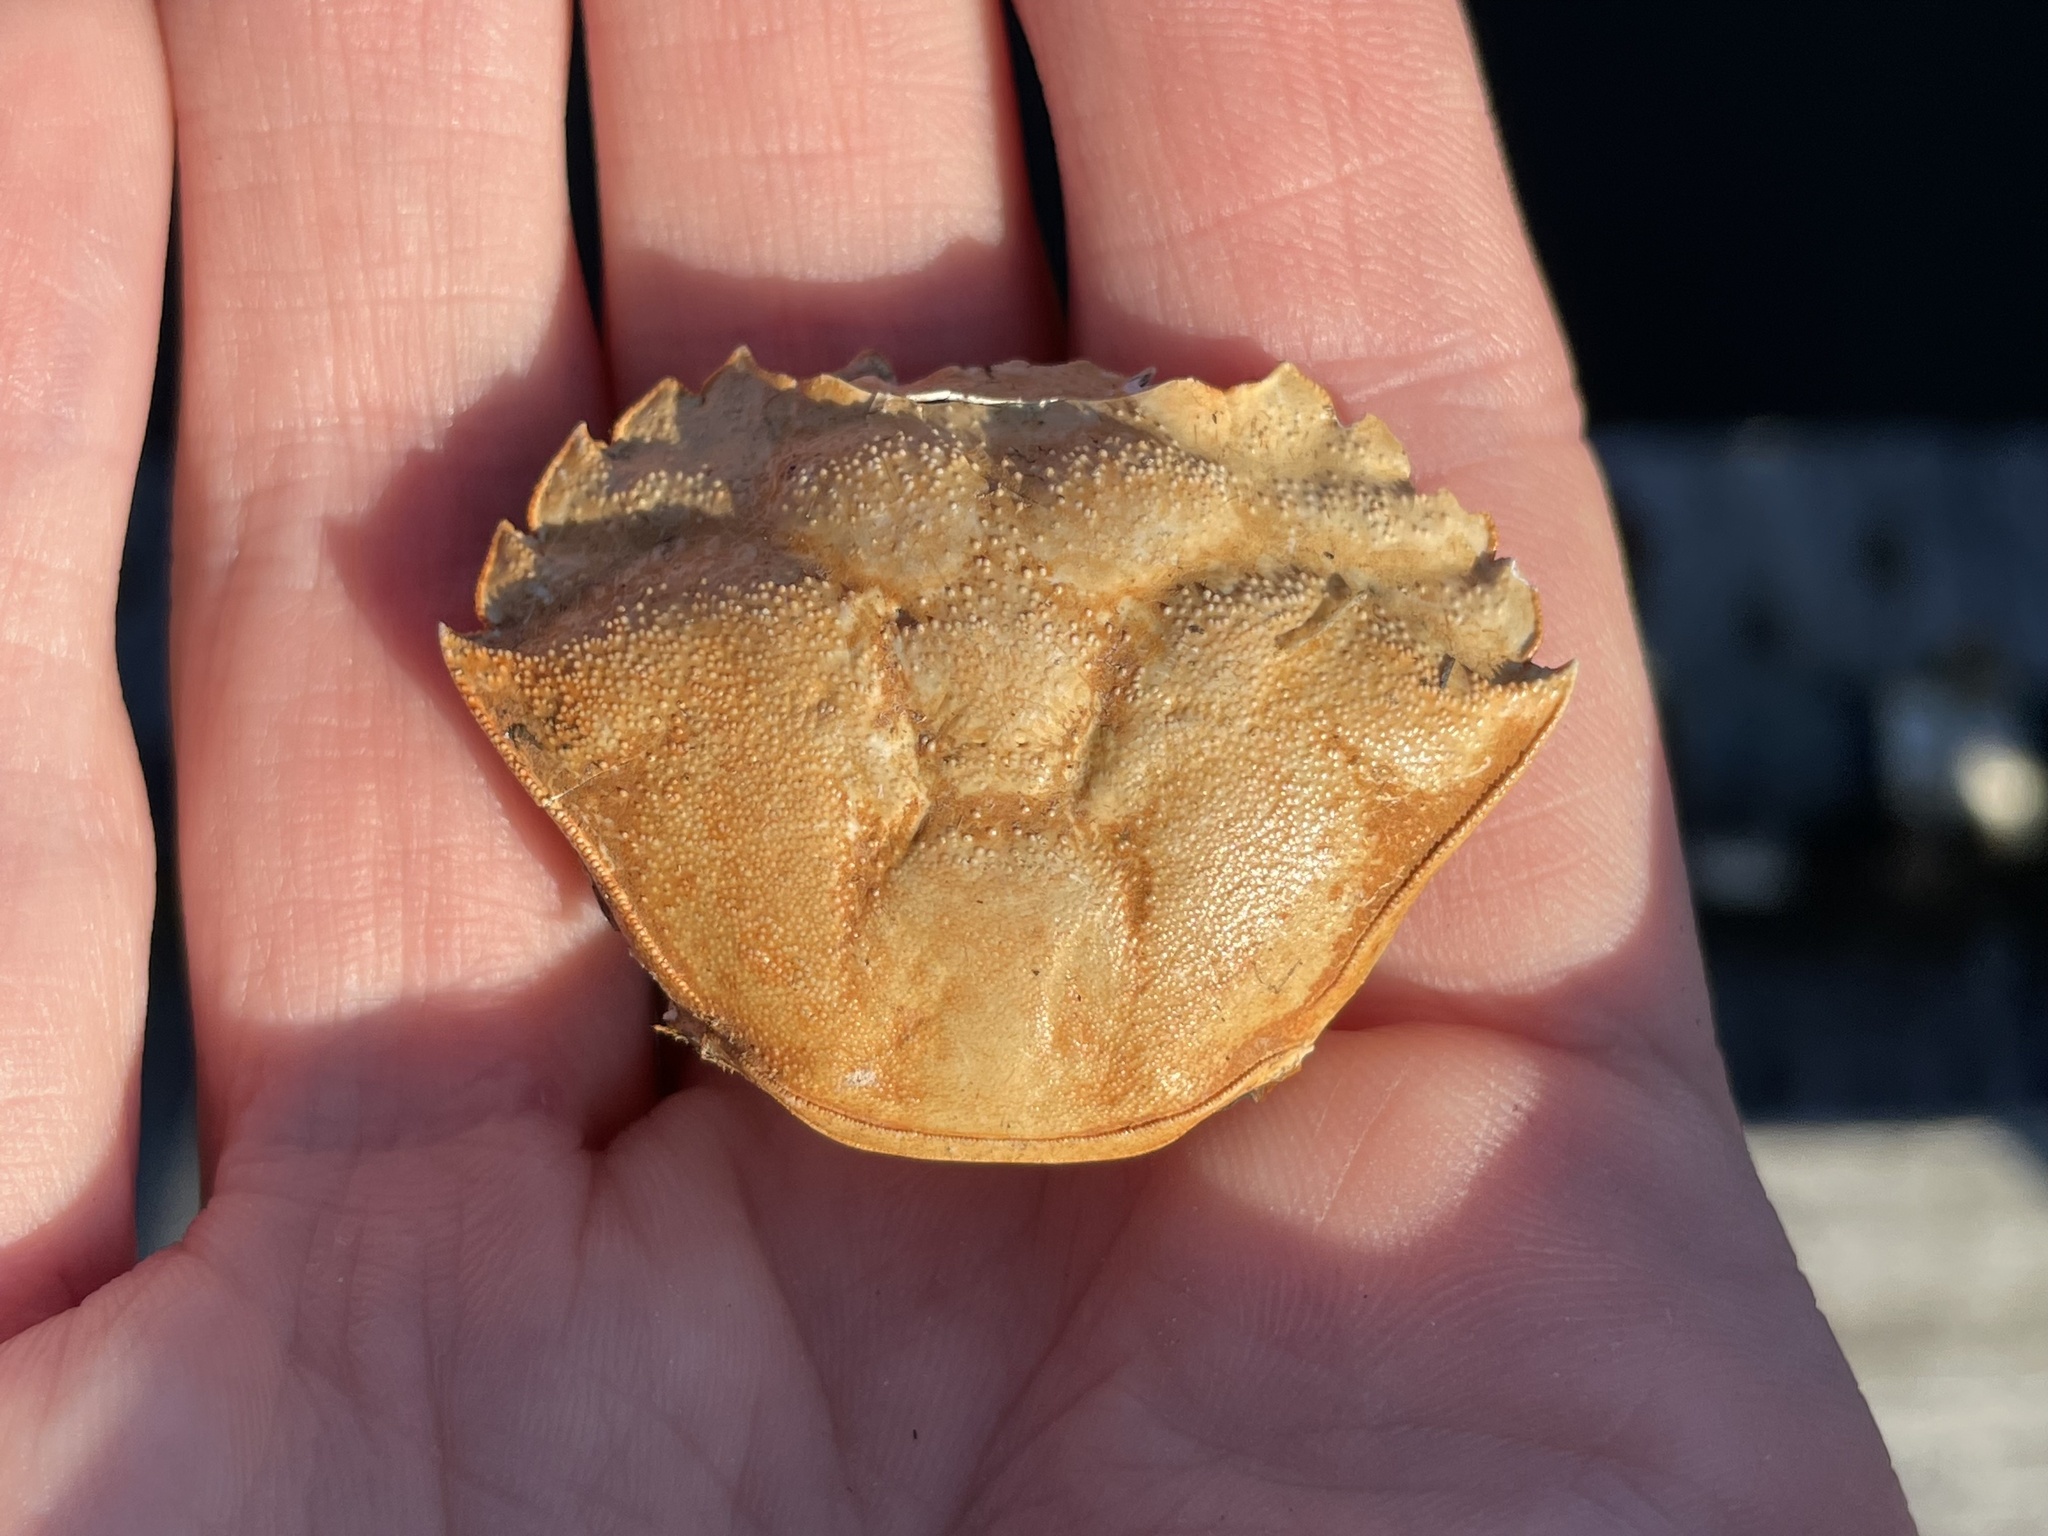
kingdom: Animalia
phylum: Arthropoda
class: Malacostraca
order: Decapoda
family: Carcinidae
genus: Carcinus
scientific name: Carcinus maenas
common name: European green crab
